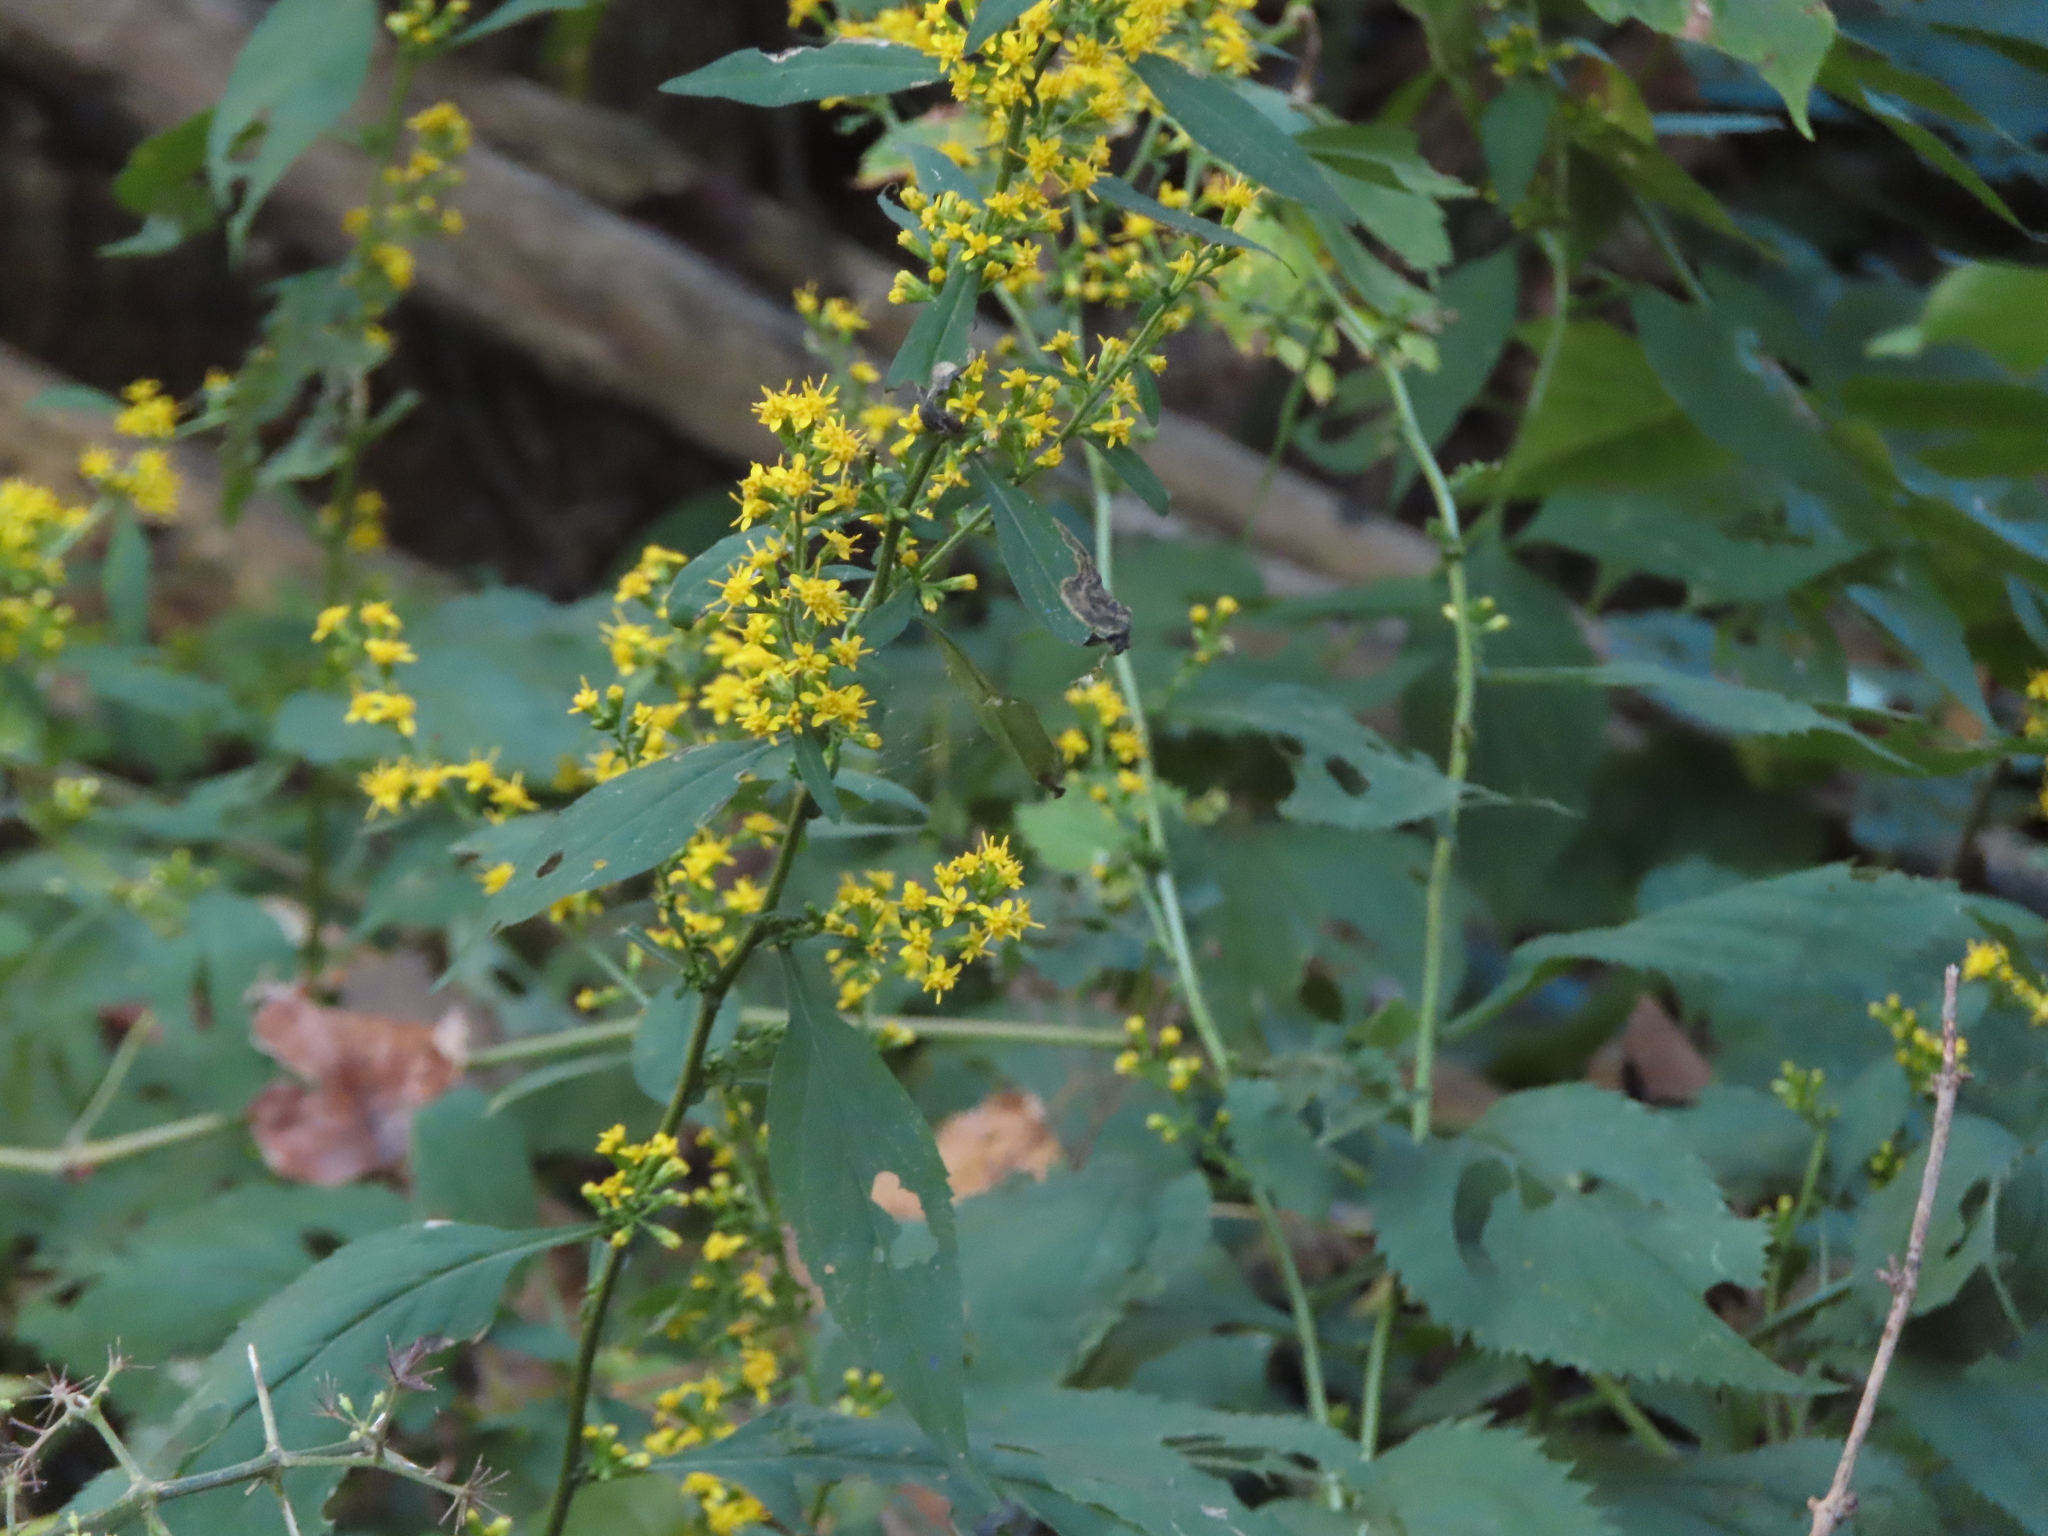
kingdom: Plantae
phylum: Tracheophyta
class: Magnoliopsida
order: Asterales
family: Asteraceae
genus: Solidago
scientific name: Solidago flexicaulis
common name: Zig-zag goldenrod
